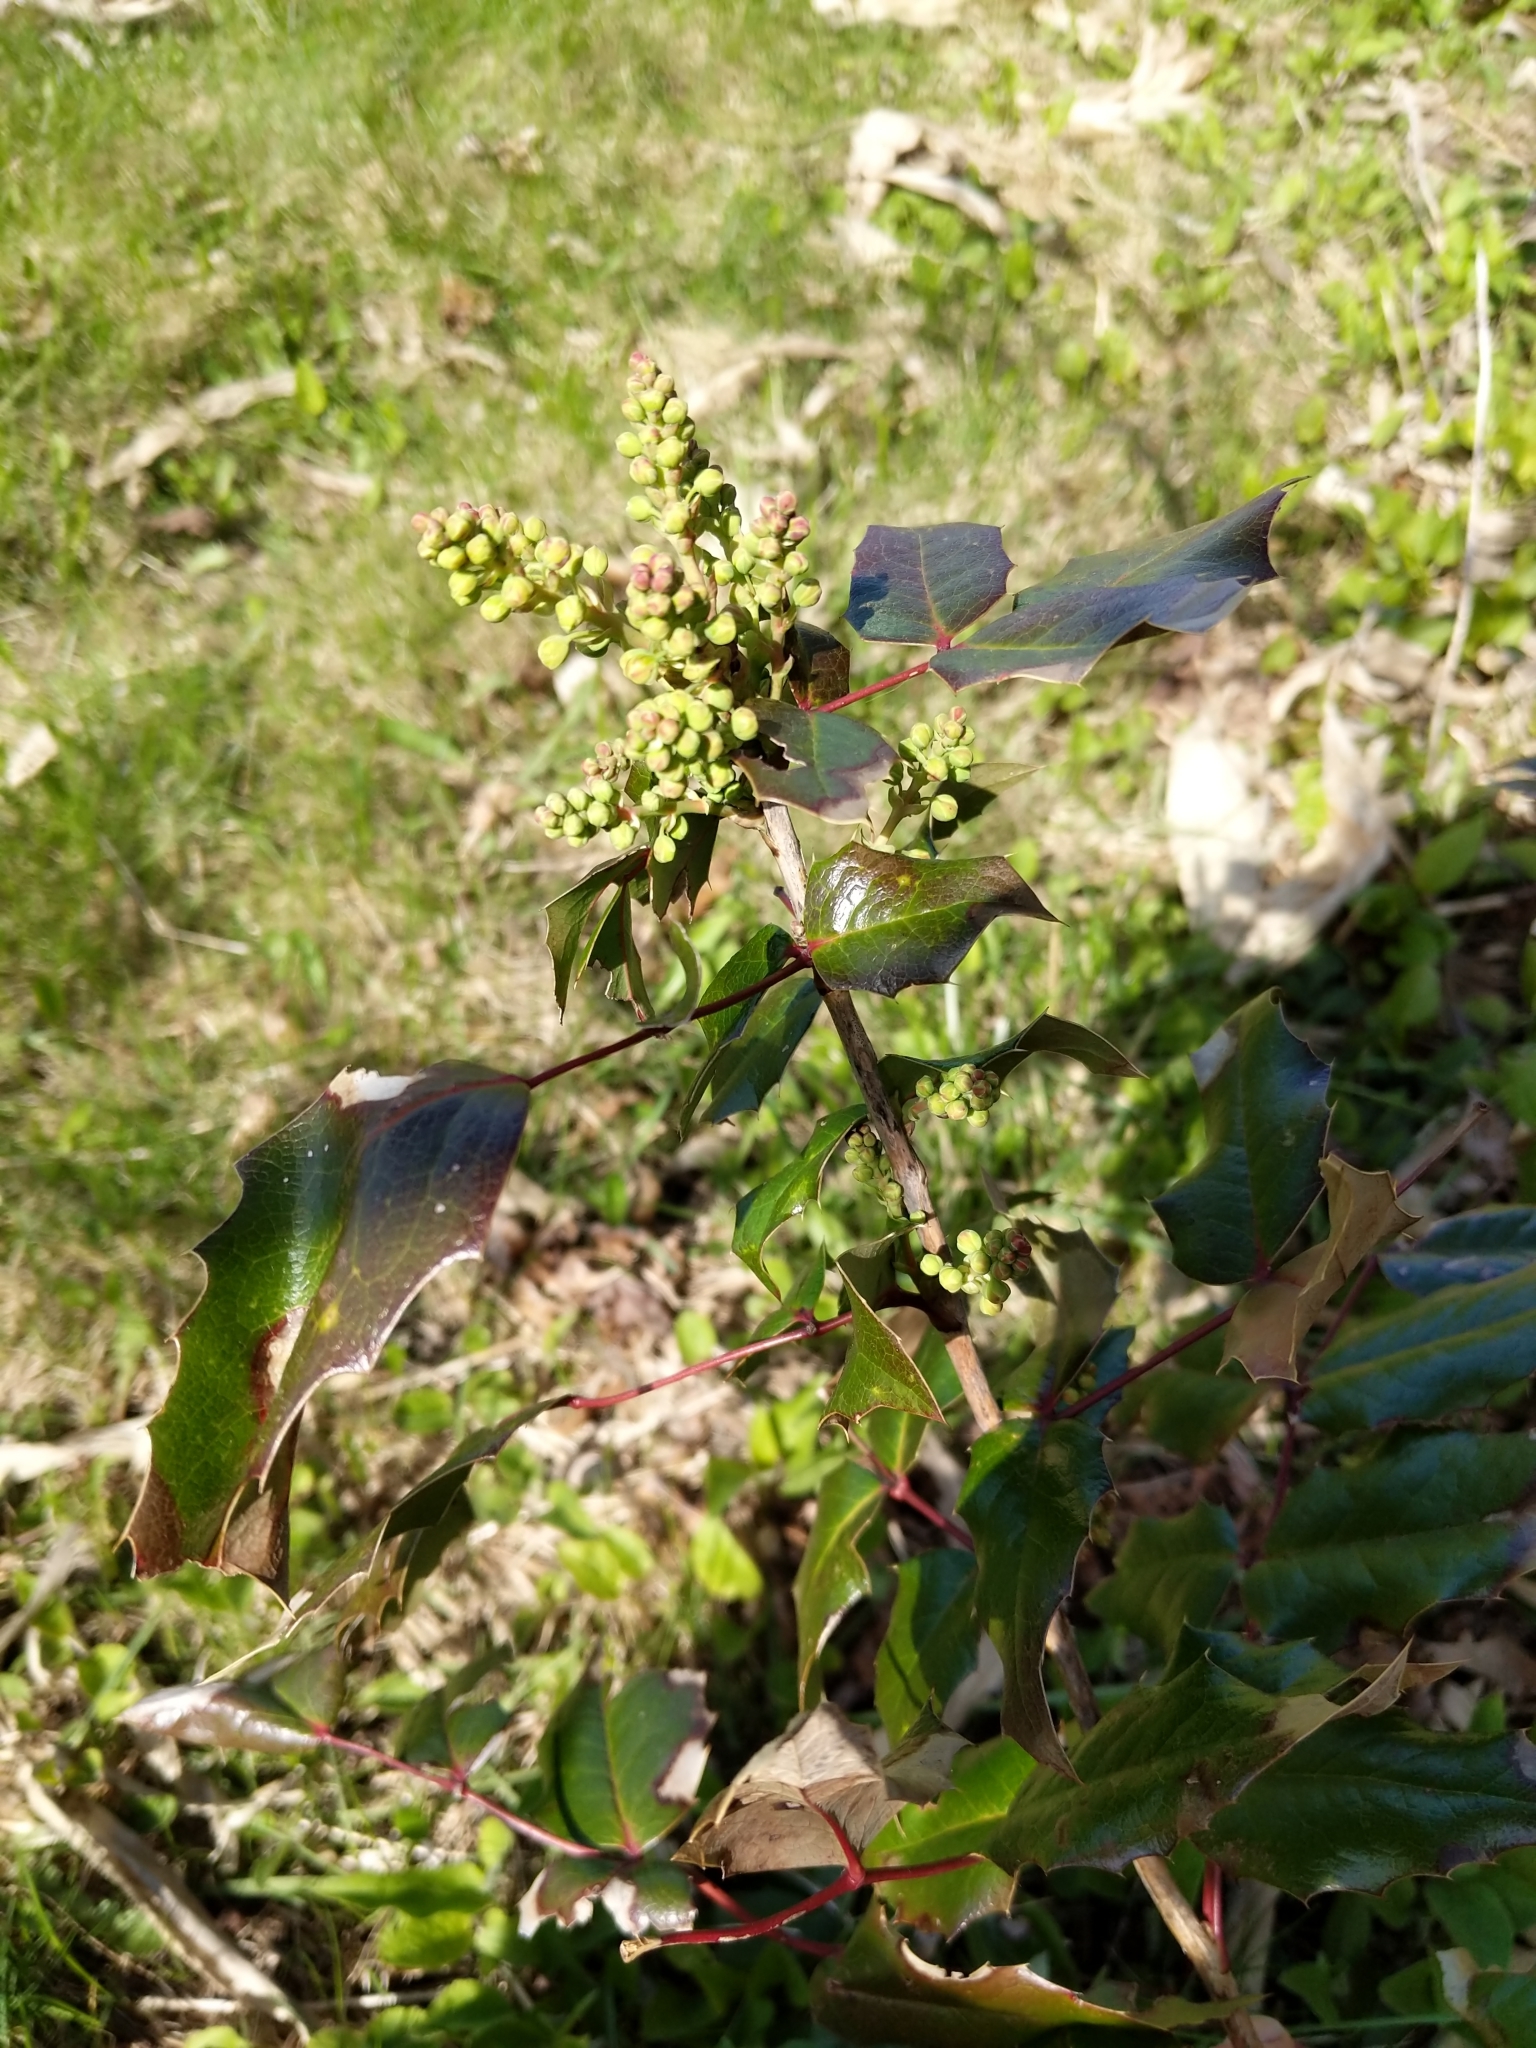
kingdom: Plantae
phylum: Tracheophyta
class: Magnoliopsida
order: Ranunculales
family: Berberidaceae
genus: Mahonia
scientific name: Mahonia aquifolium
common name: Oregon-grape
